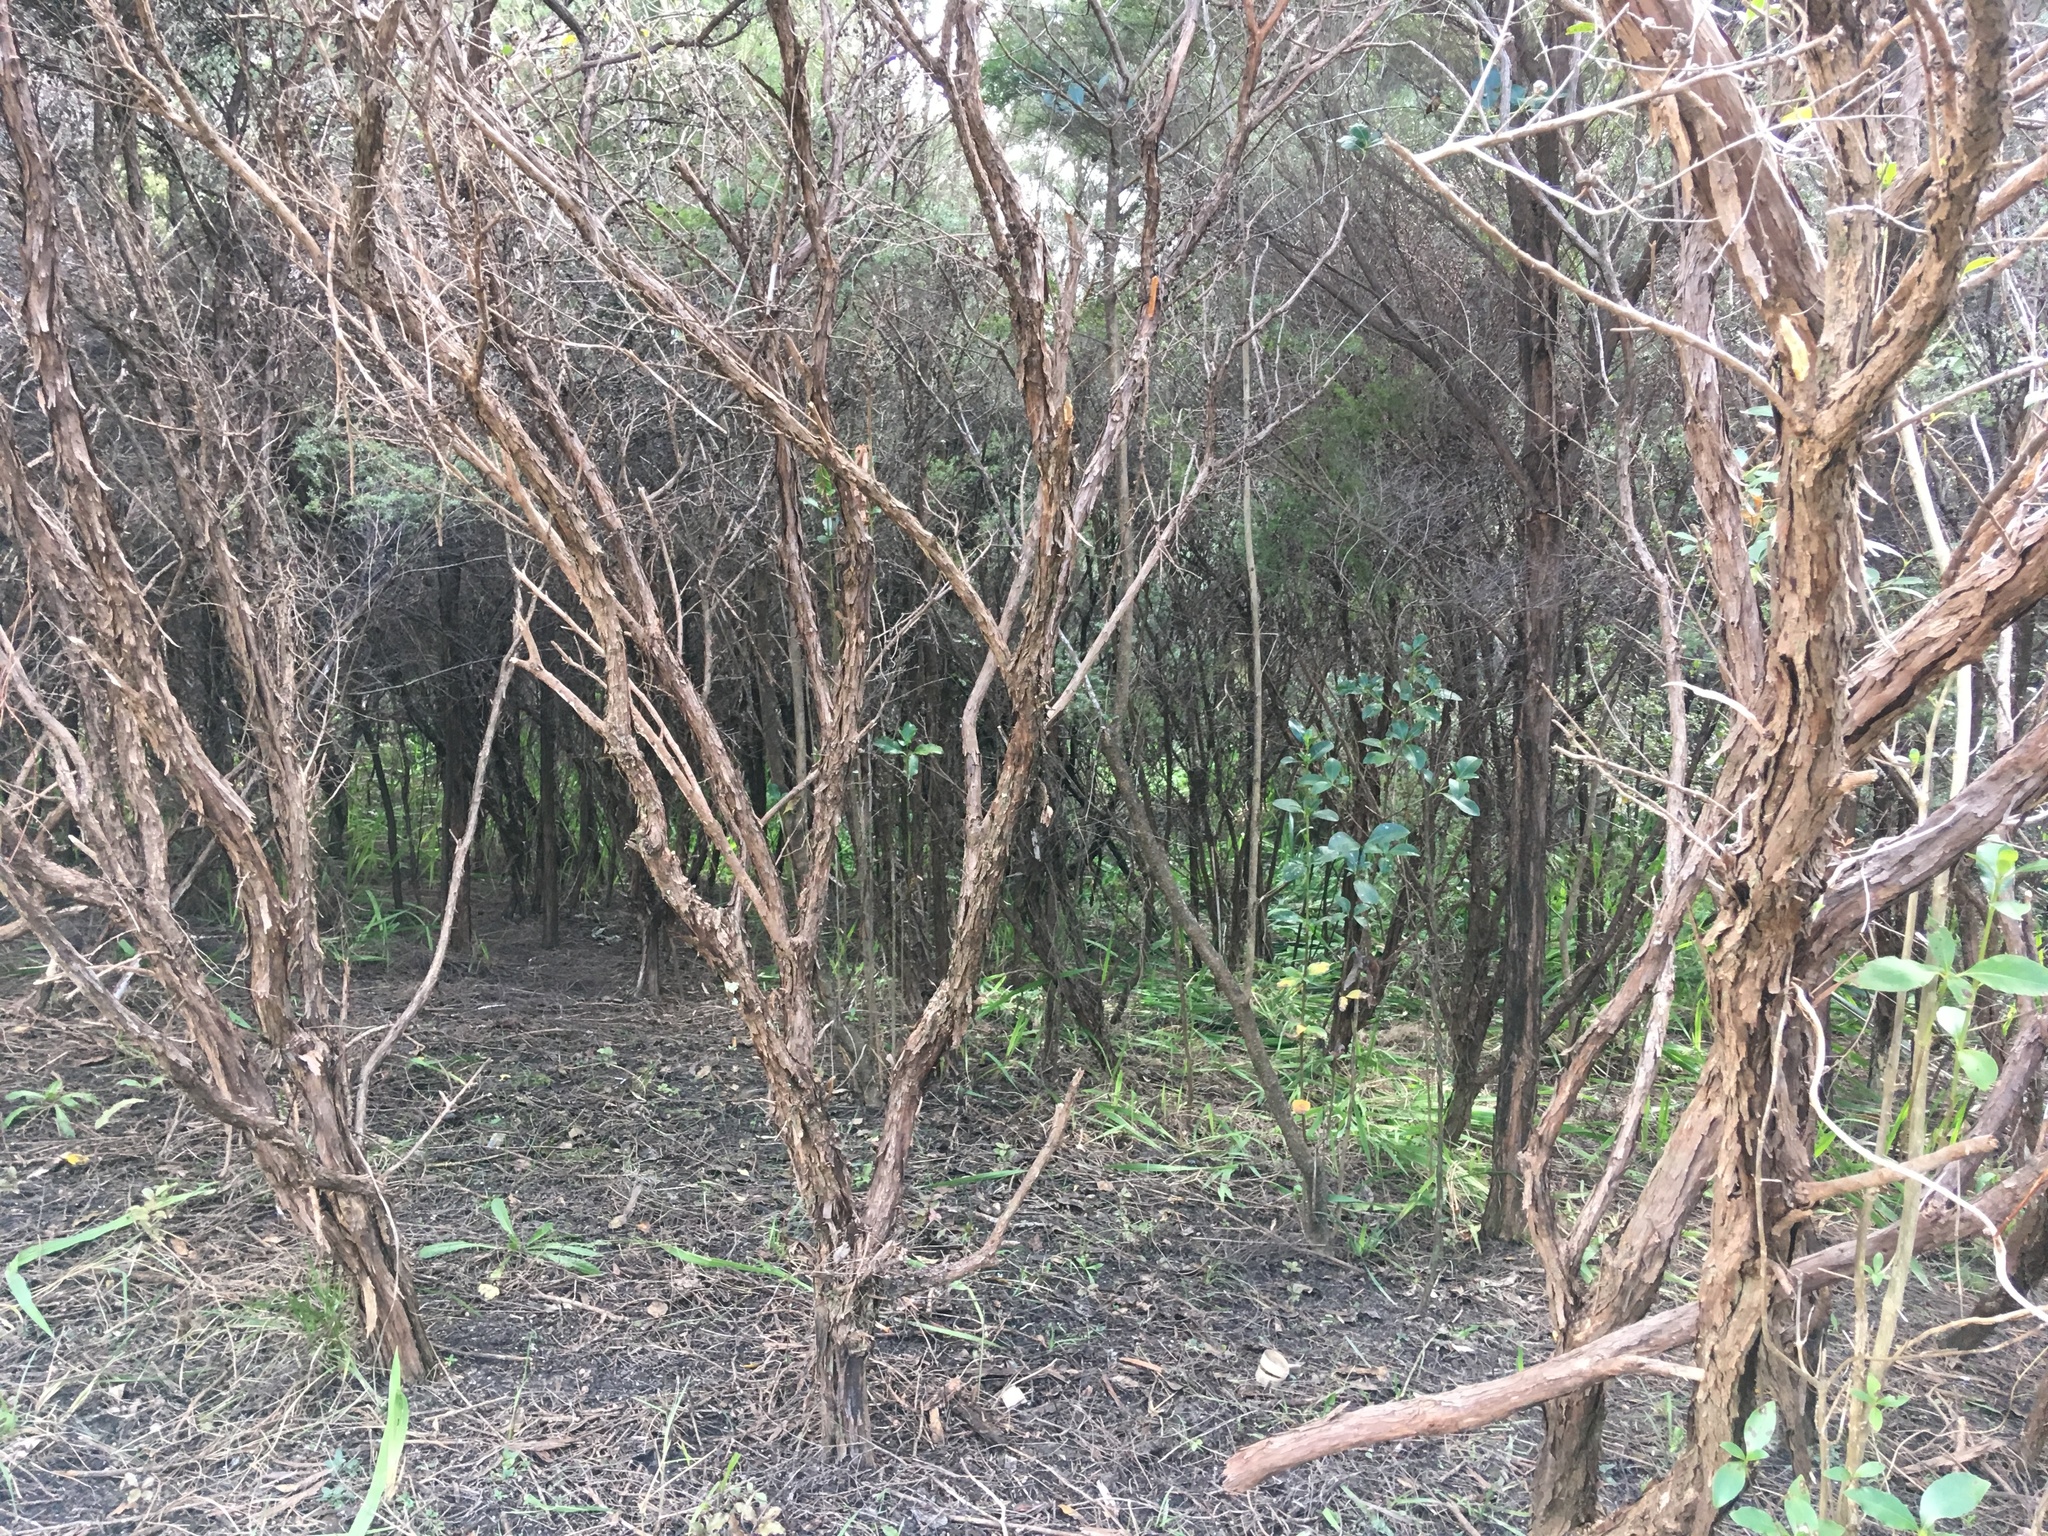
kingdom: Plantae
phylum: Tracheophyta
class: Magnoliopsida
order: Myrtales
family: Myrtaceae
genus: Leptospermum
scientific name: Leptospermum scoparium
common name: Broom tea-tree
